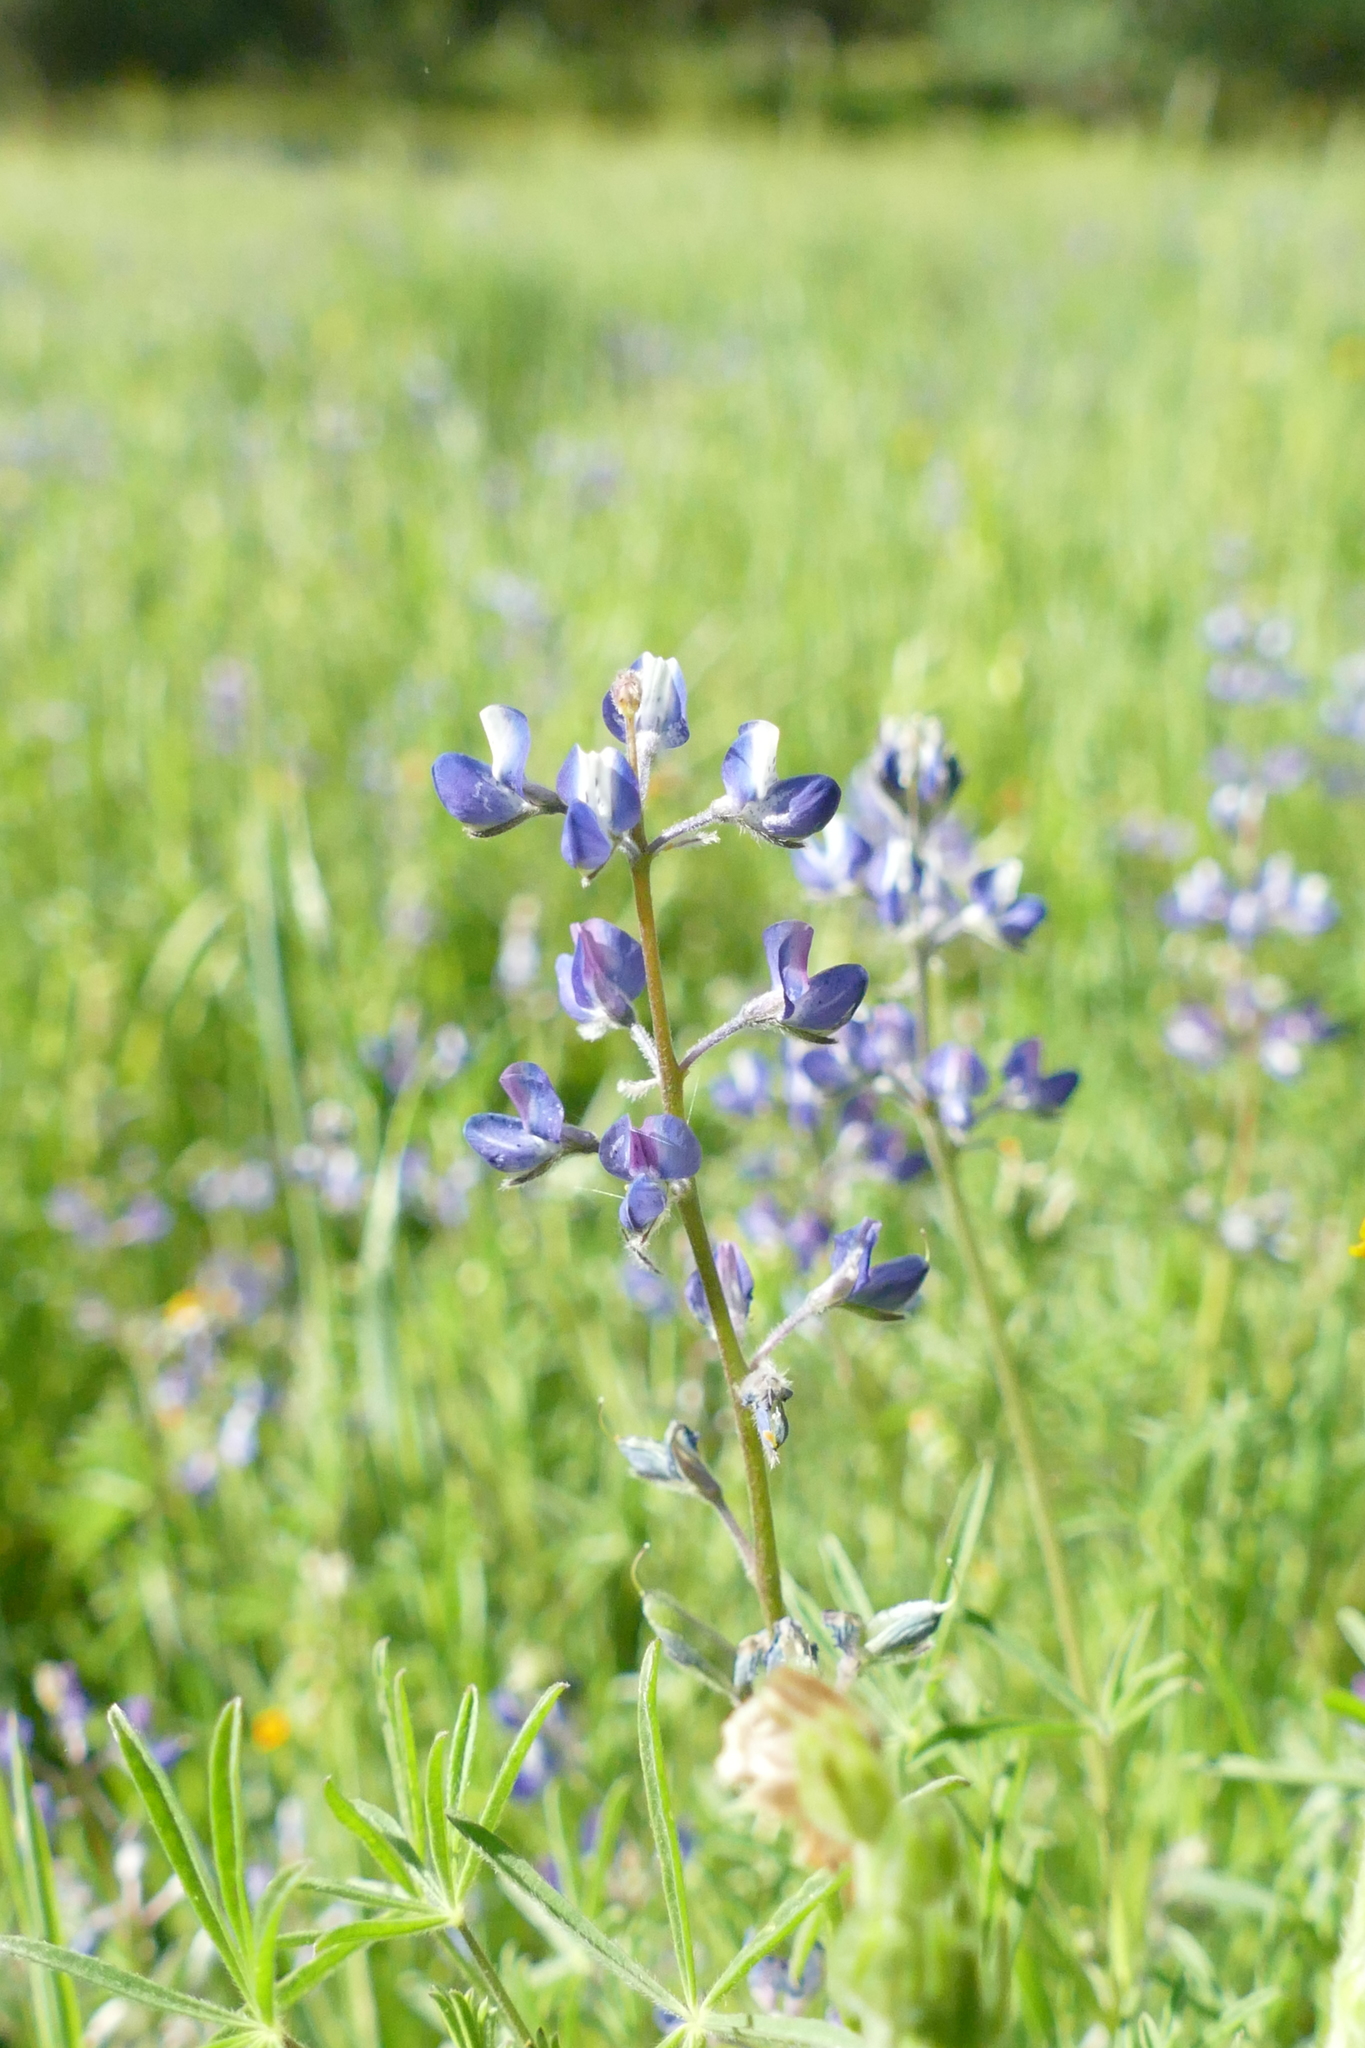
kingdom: Plantae
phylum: Tracheophyta
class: Magnoliopsida
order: Fabales
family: Fabaceae
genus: Lupinus
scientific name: Lupinus bicolor
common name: Miniature lupine
